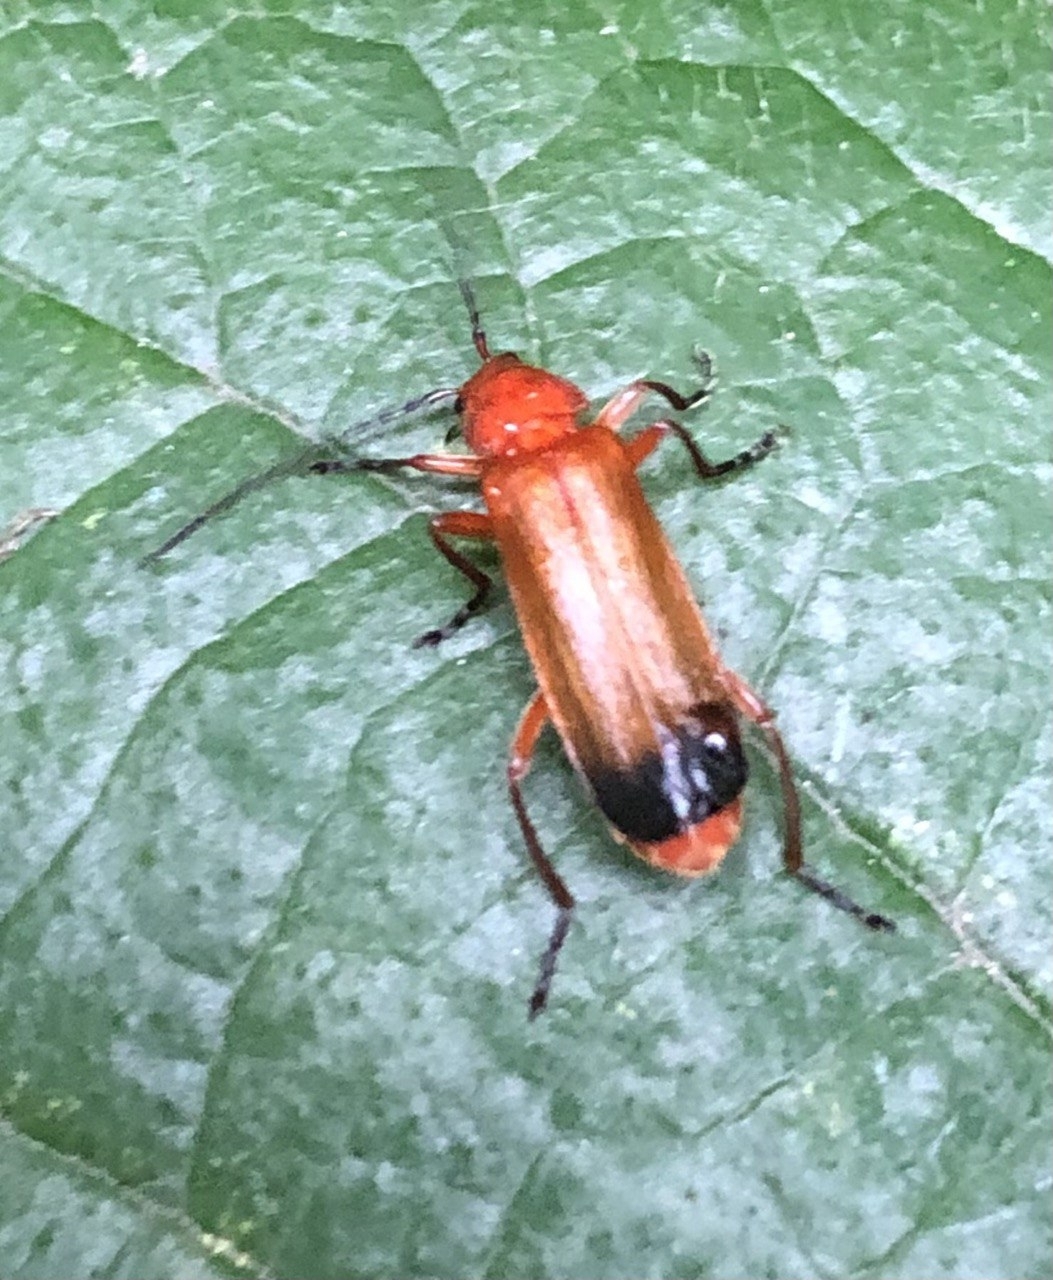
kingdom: Animalia
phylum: Arthropoda
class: Insecta
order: Coleoptera
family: Cantharidae
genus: Rhagonycha
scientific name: Rhagonycha fulva
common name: Common red soldier beetle
